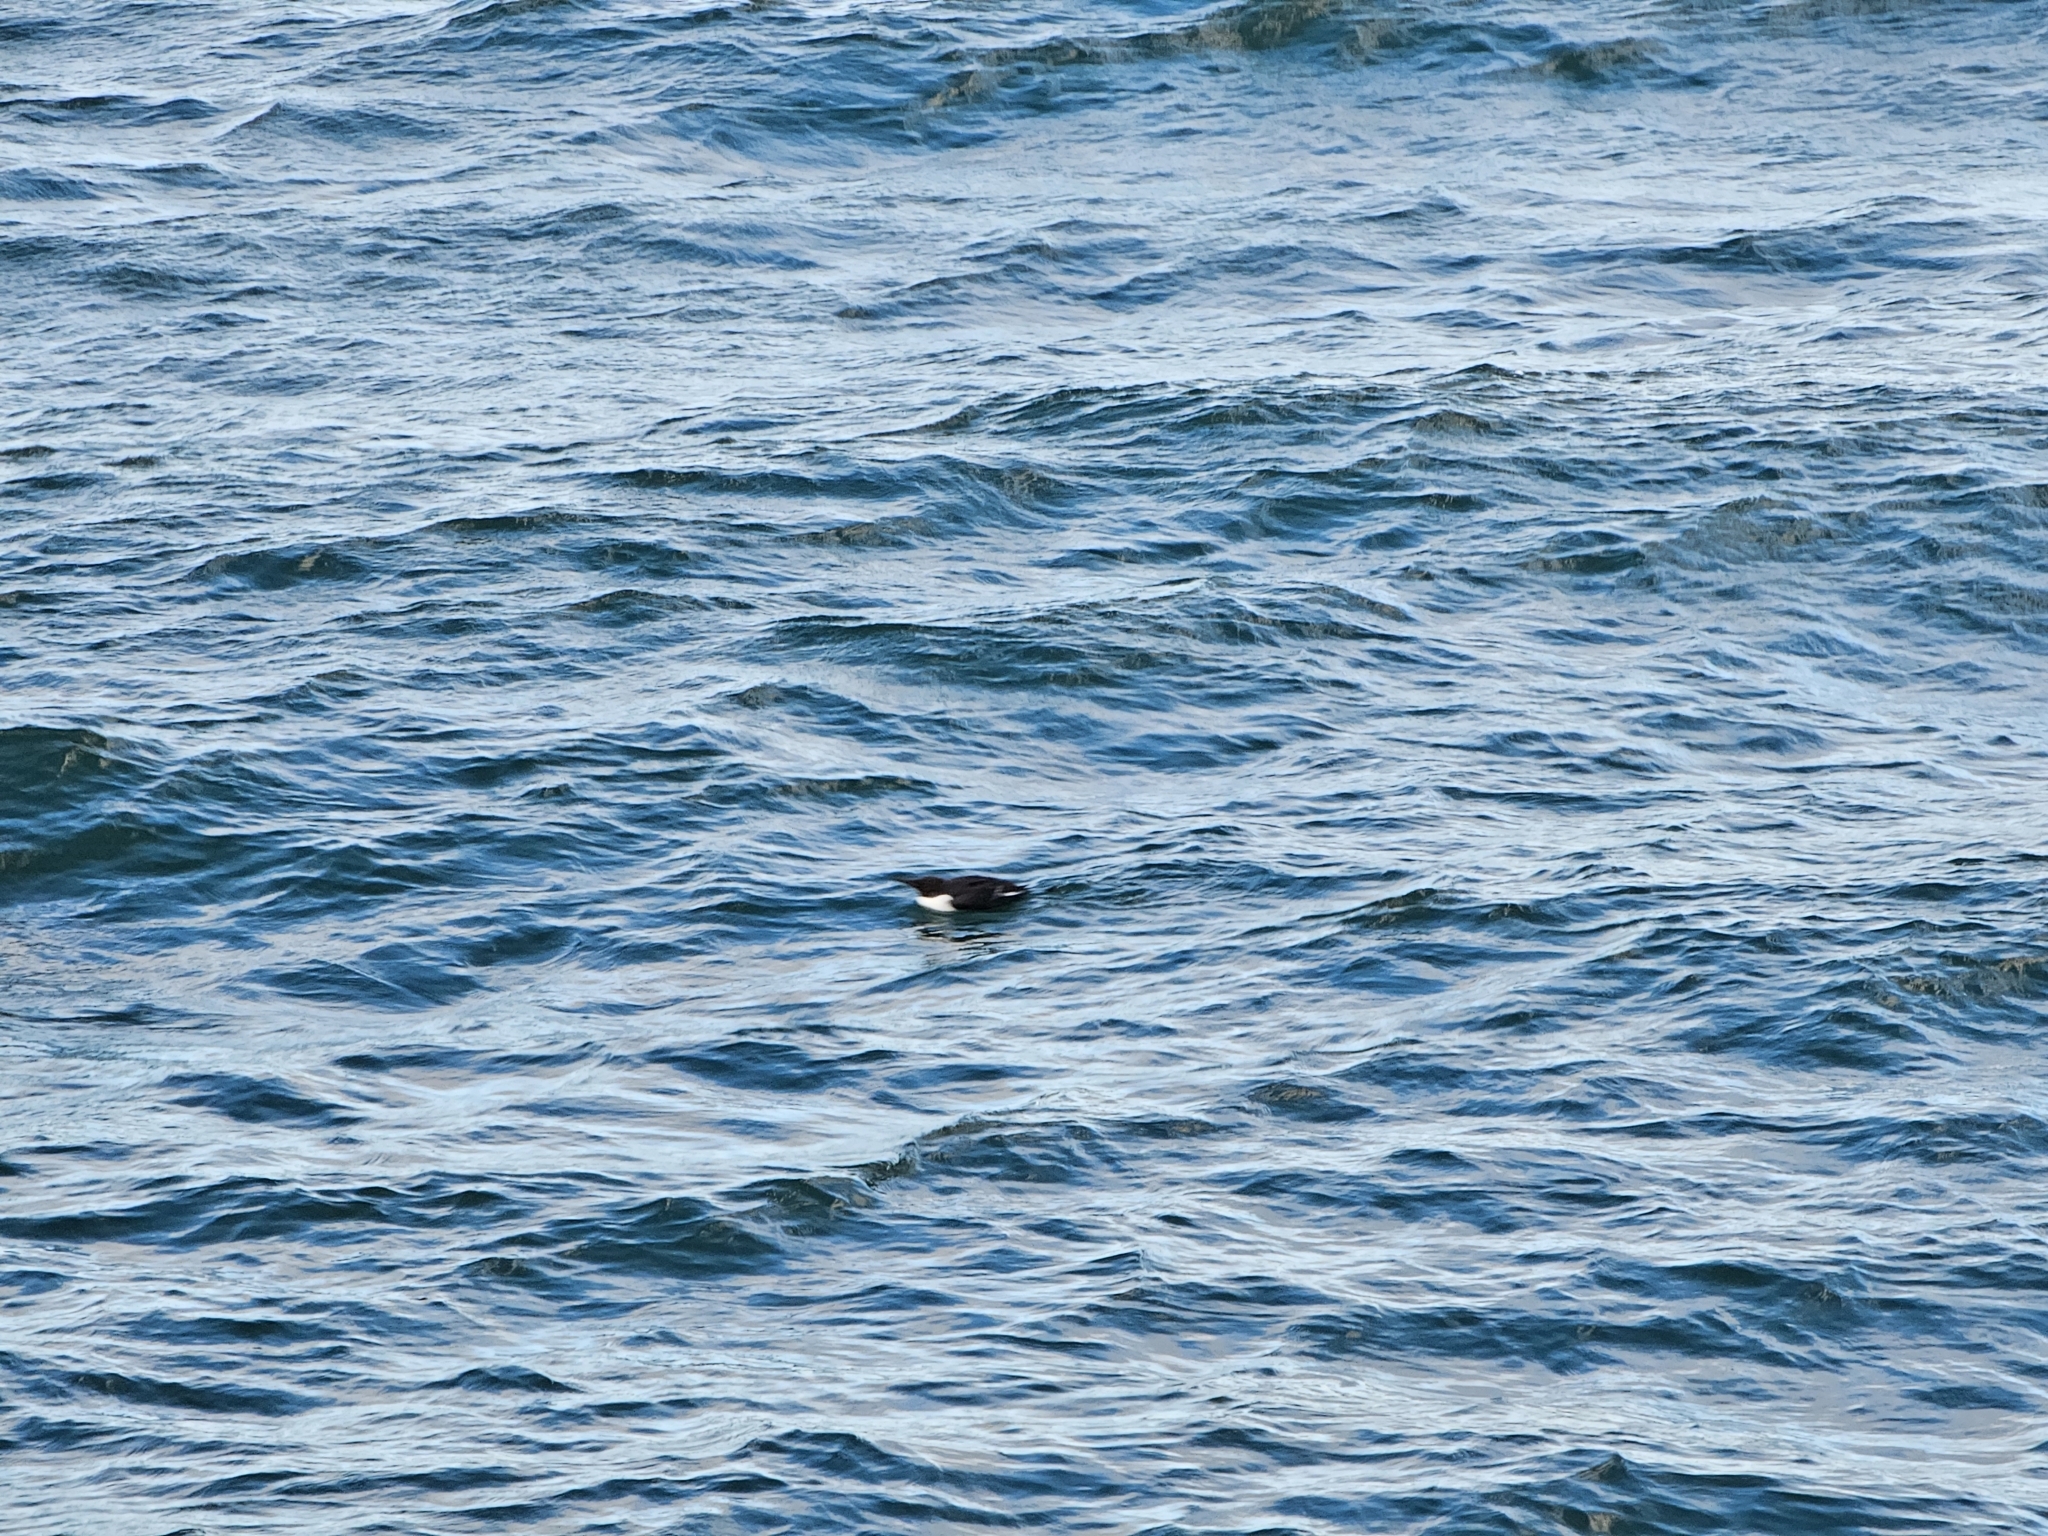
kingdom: Animalia
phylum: Chordata
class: Aves
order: Charadriiformes
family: Alcidae
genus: Uria
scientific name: Uria aalge
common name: Common murre
